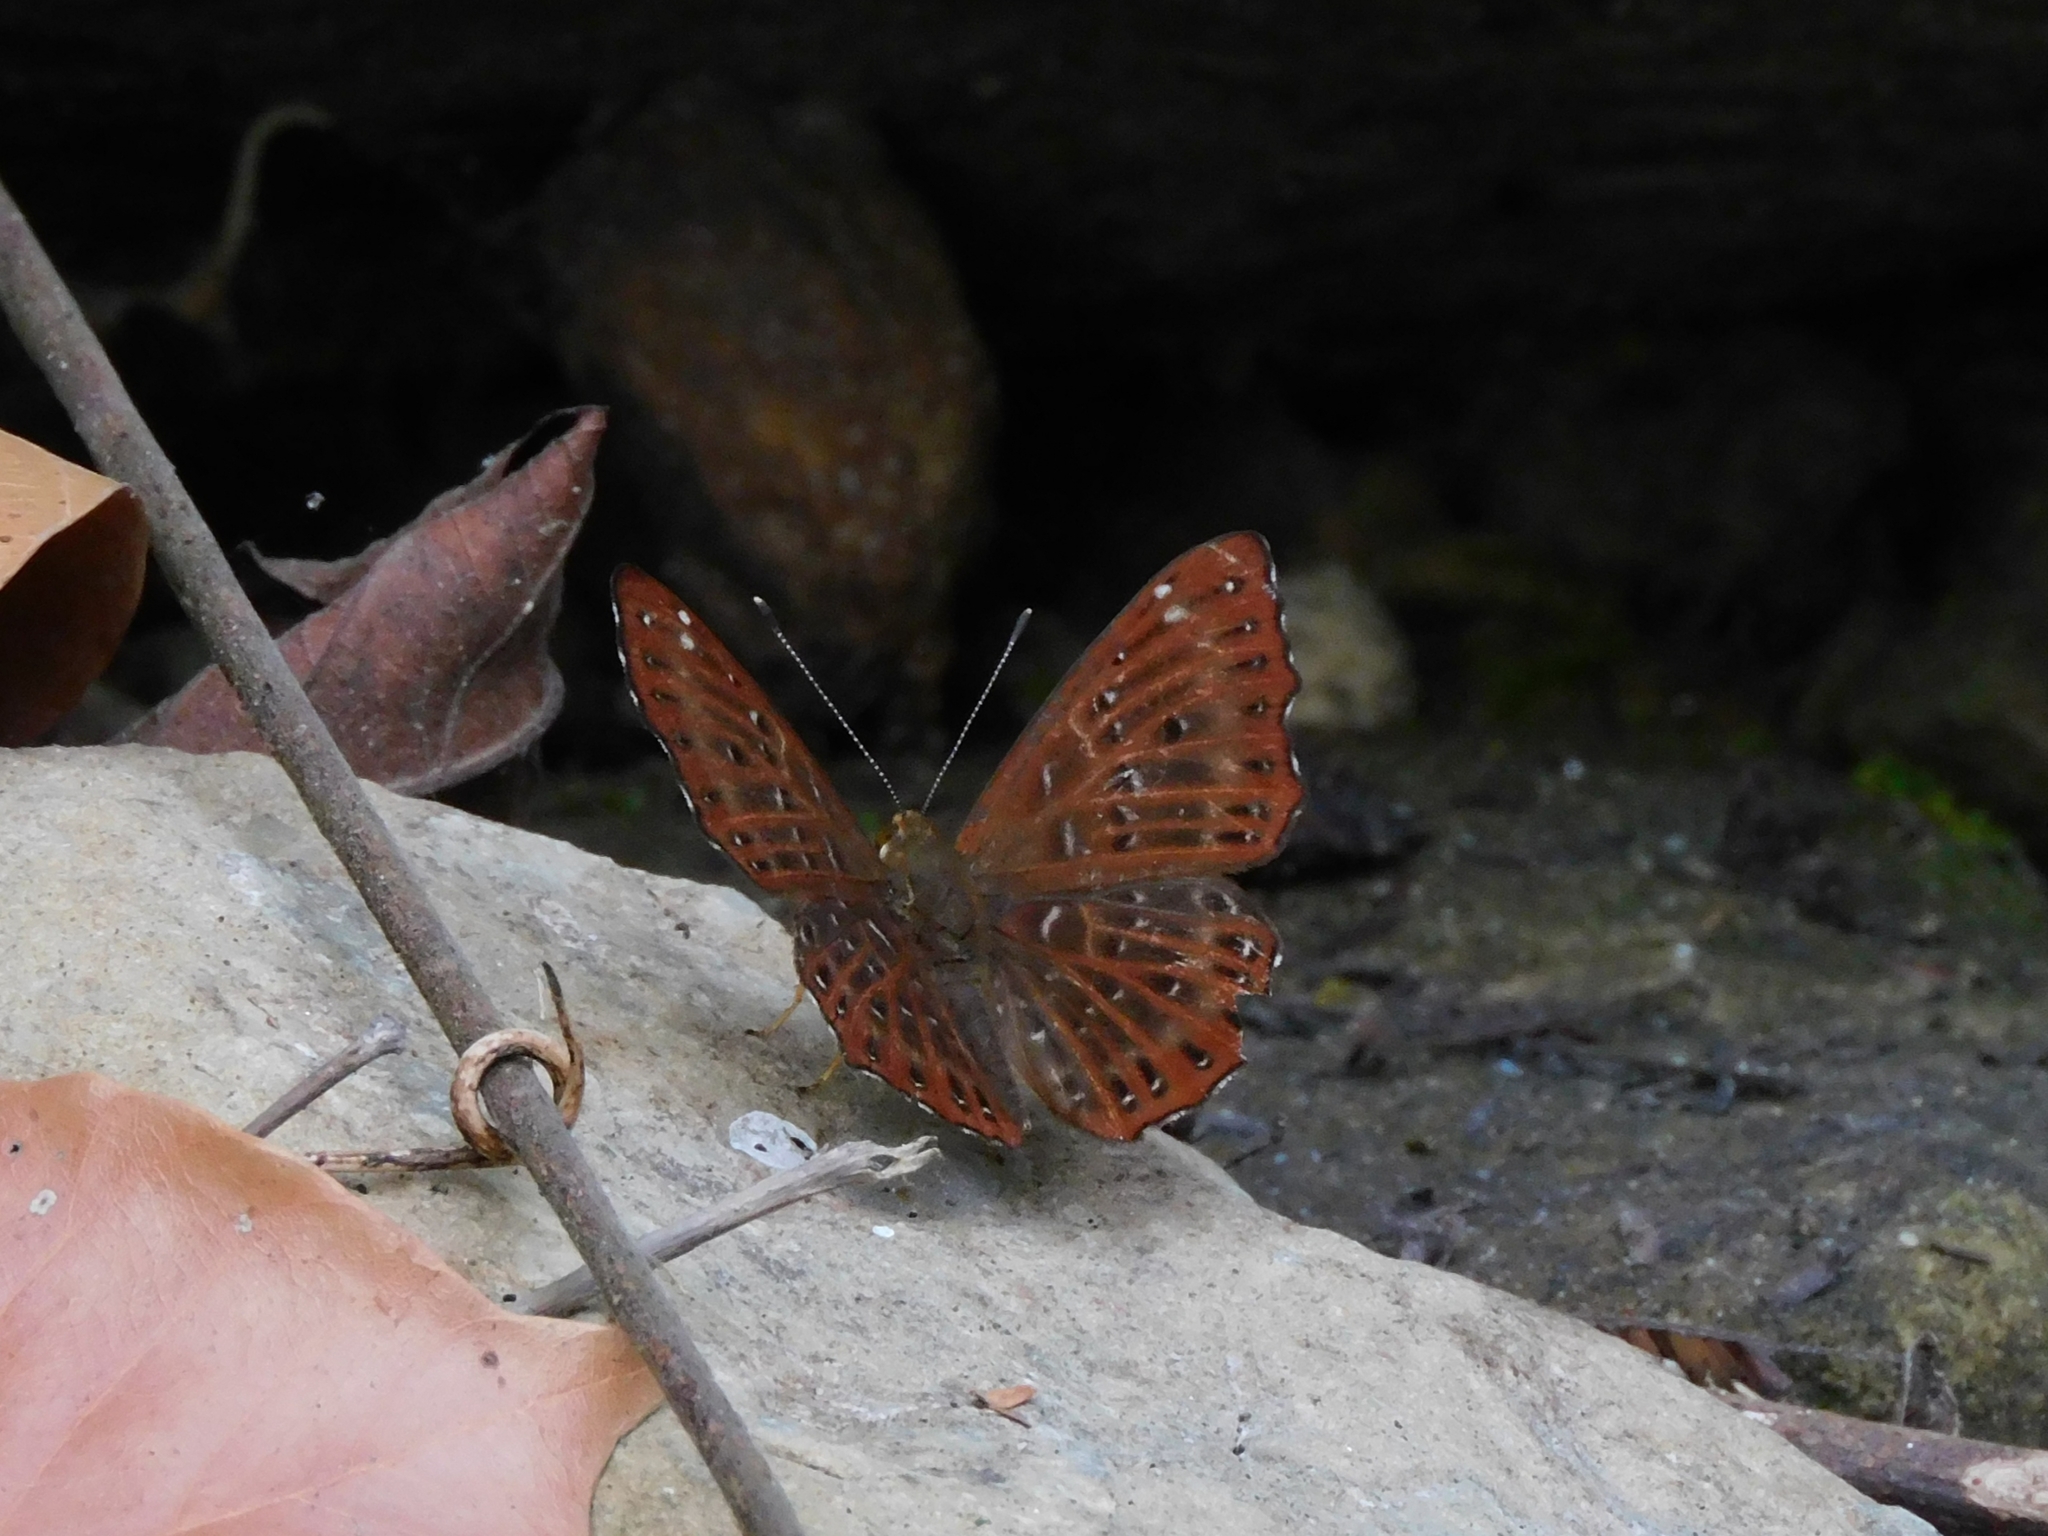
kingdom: Animalia
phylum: Arthropoda
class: Insecta
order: Lepidoptera
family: Riodinidae
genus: Zemeros
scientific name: Zemeros flegyas
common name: Punchinello
